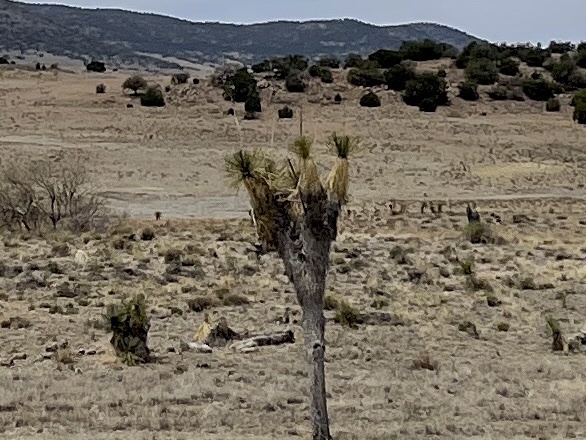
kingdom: Plantae
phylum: Tracheophyta
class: Liliopsida
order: Asparagales
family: Asparagaceae
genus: Yucca
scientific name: Yucca elata
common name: Palmella
